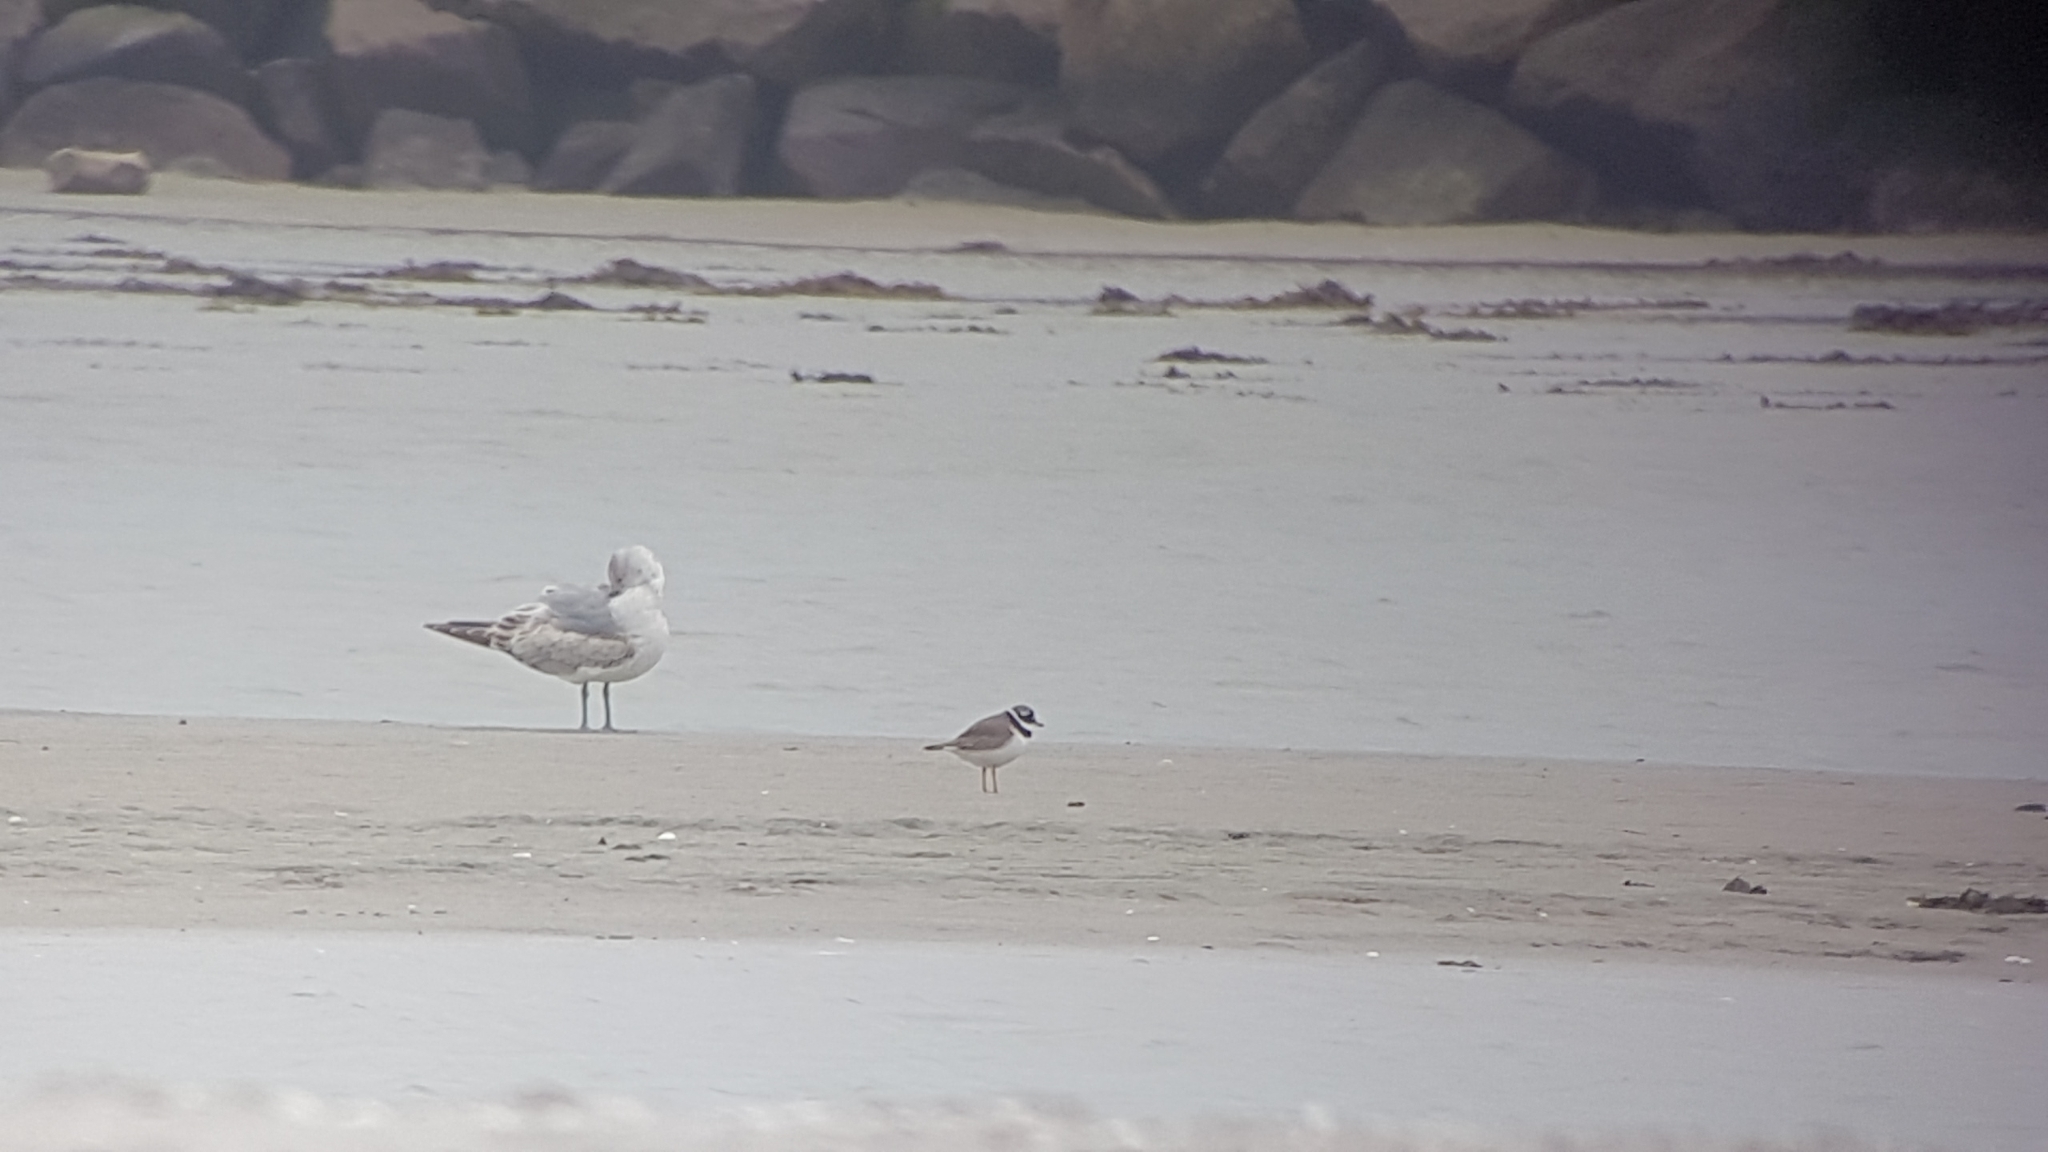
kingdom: Animalia
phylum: Chordata
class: Aves
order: Charadriiformes
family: Charadriidae
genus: Charadrius
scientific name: Charadrius hiaticula
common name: Common ringed plover
